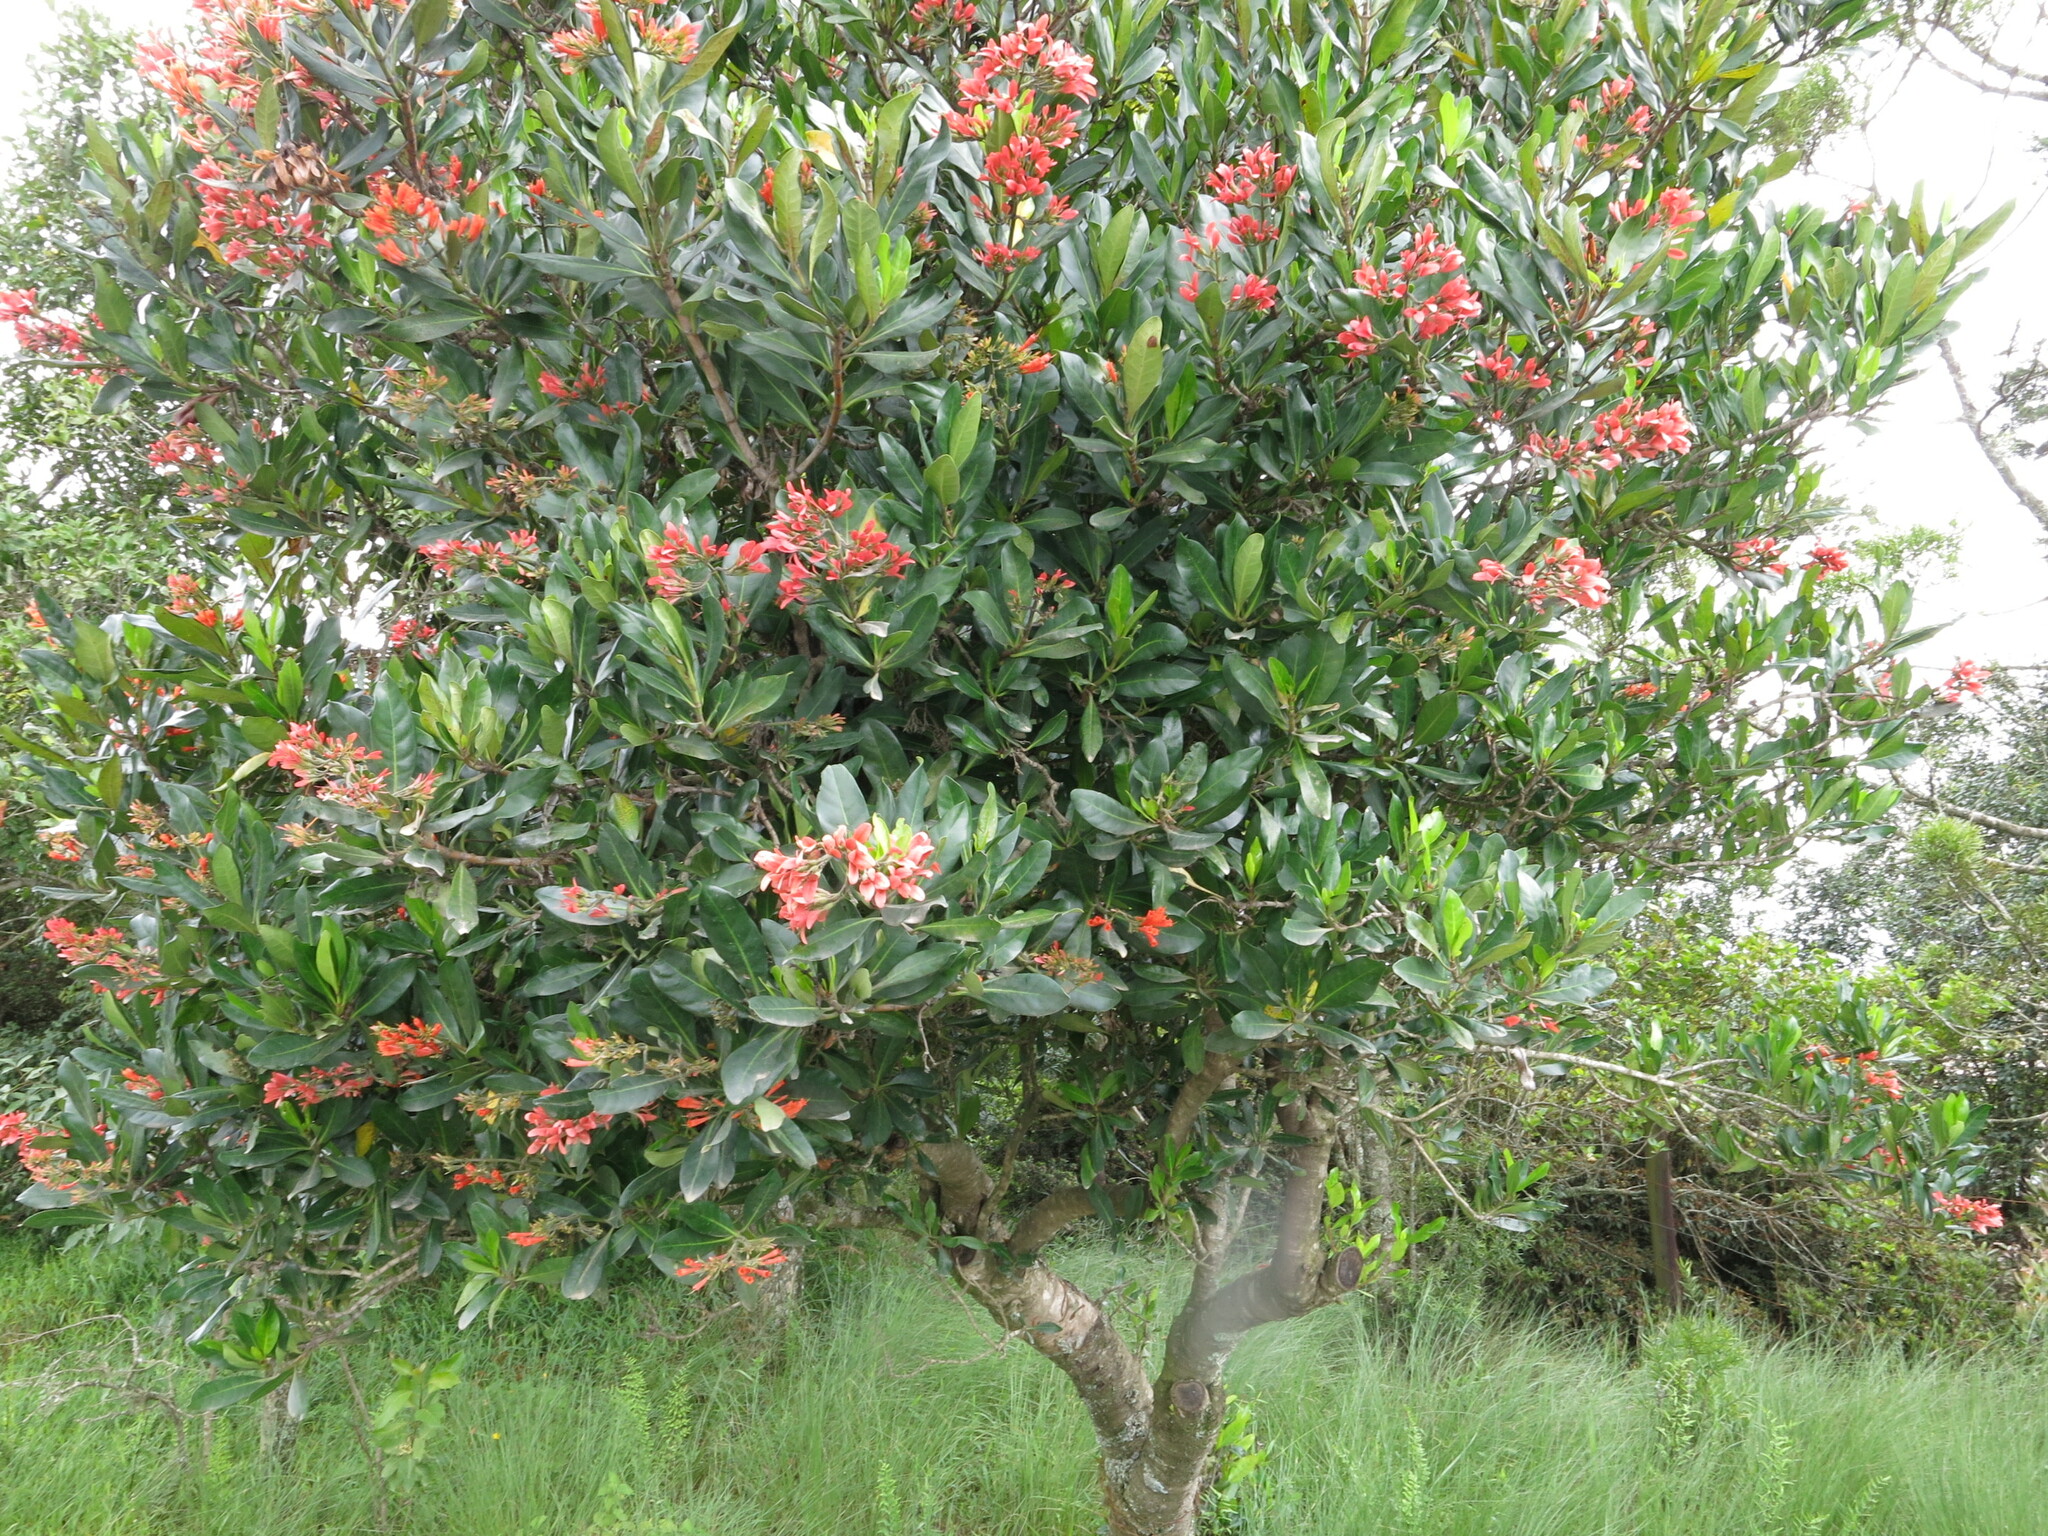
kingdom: Plantae
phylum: Tracheophyta
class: Magnoliopsida
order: Gentianales
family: Rubiaceae
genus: Alberta
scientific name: Alberta magna
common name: Magnificent-flame
